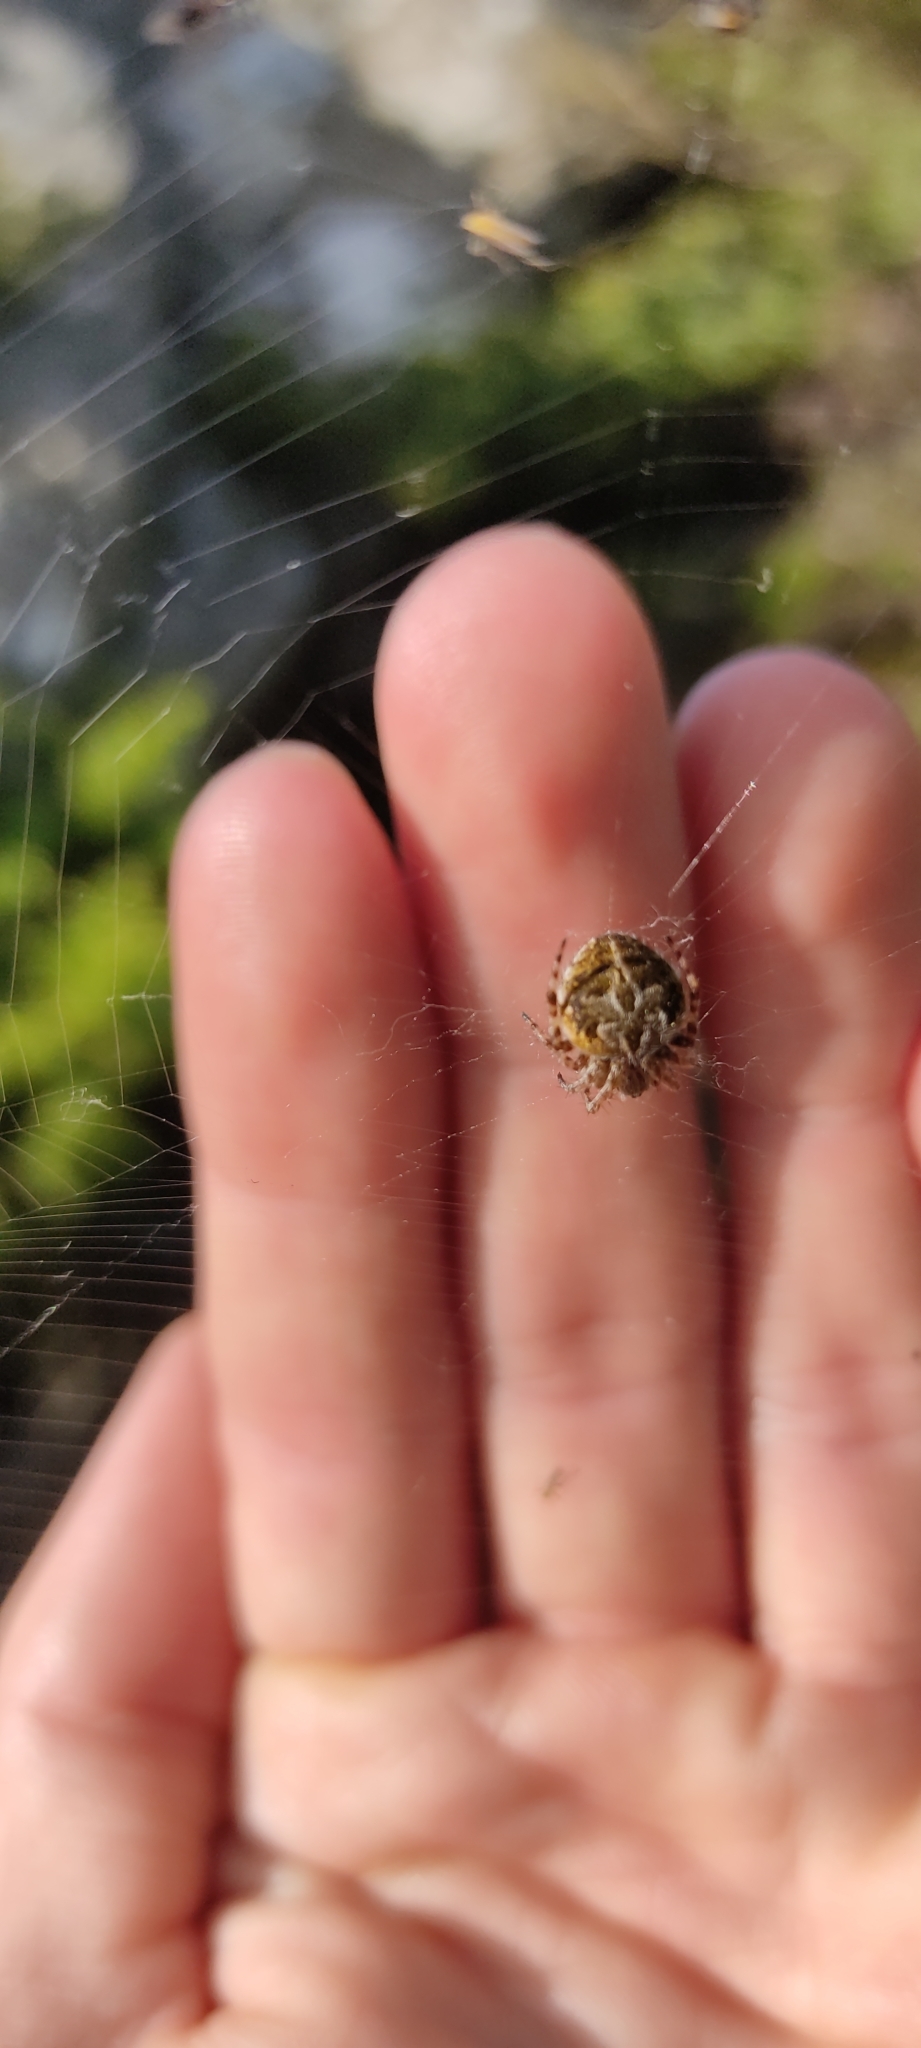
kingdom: Animalia
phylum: Arthropoda
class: Arachnida
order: Araneae
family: Araneidae
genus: Agalenatea
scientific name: Agalenatea redii
